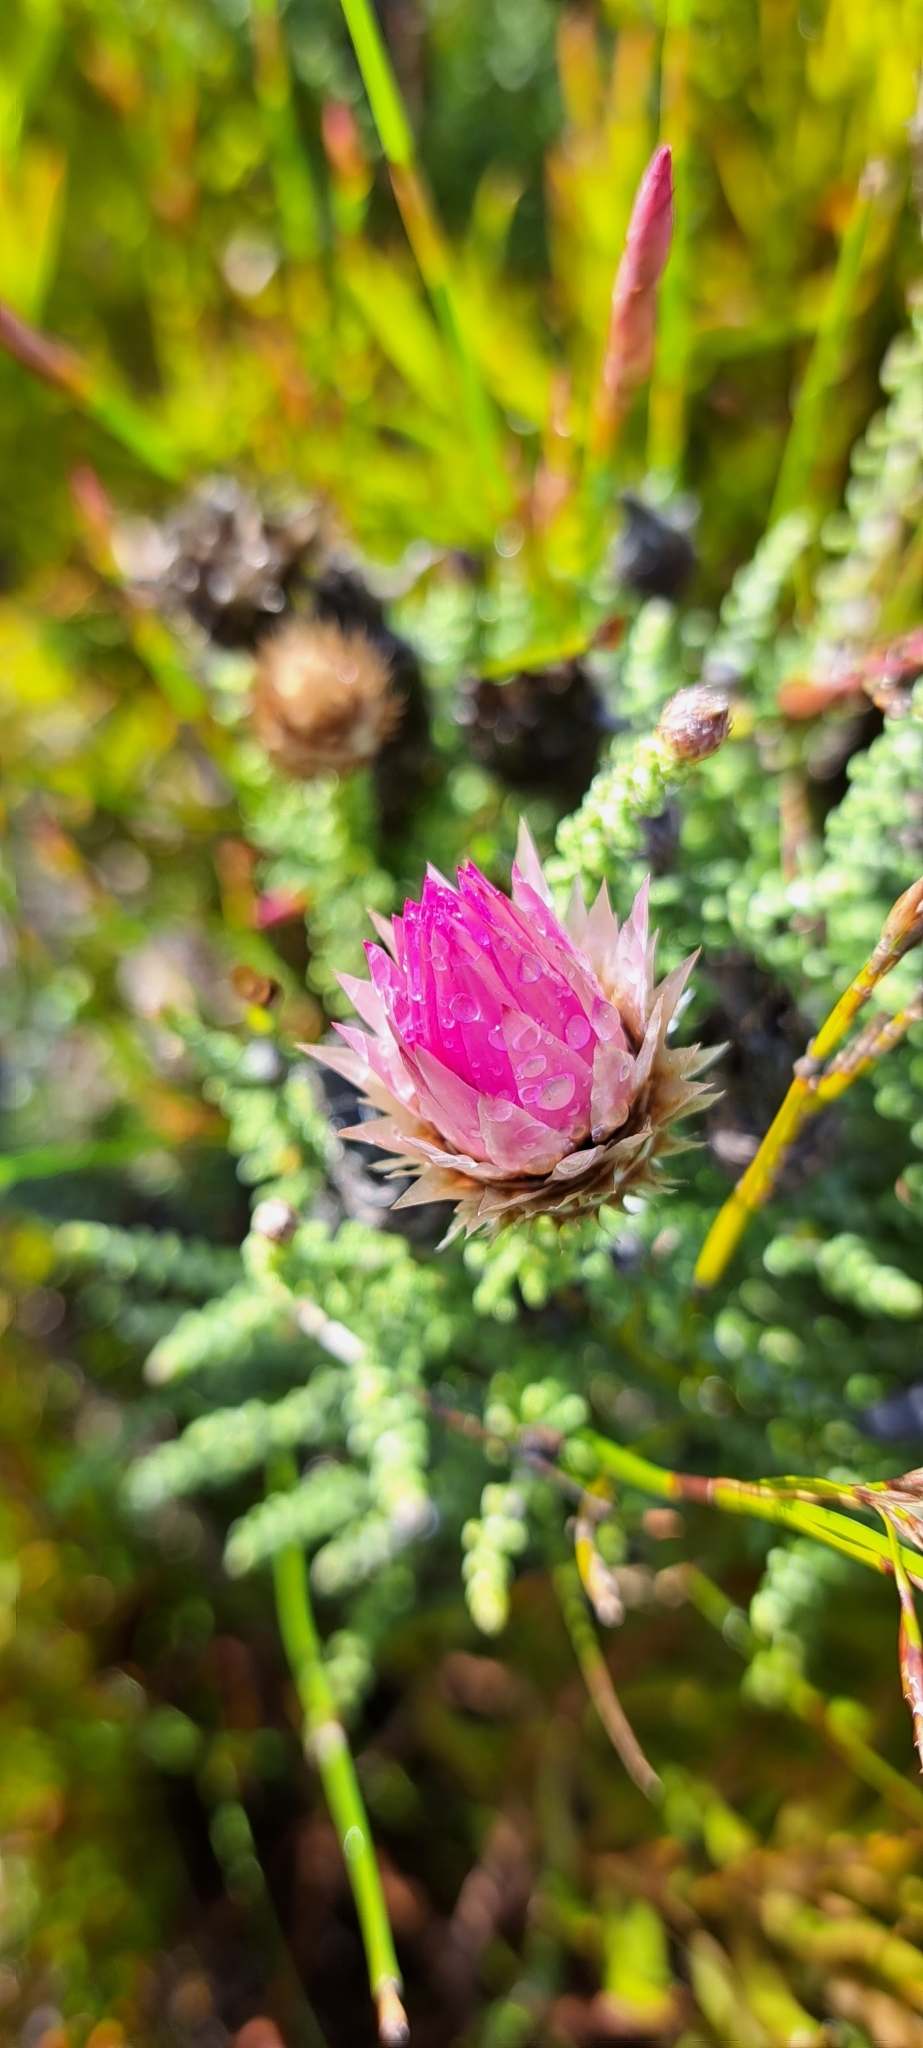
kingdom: Plantae
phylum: Tracheophyta
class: Magnoliopsida
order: Asterales
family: Asteraceae
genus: Phaenocoma
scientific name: Phaenocoma prolifera
